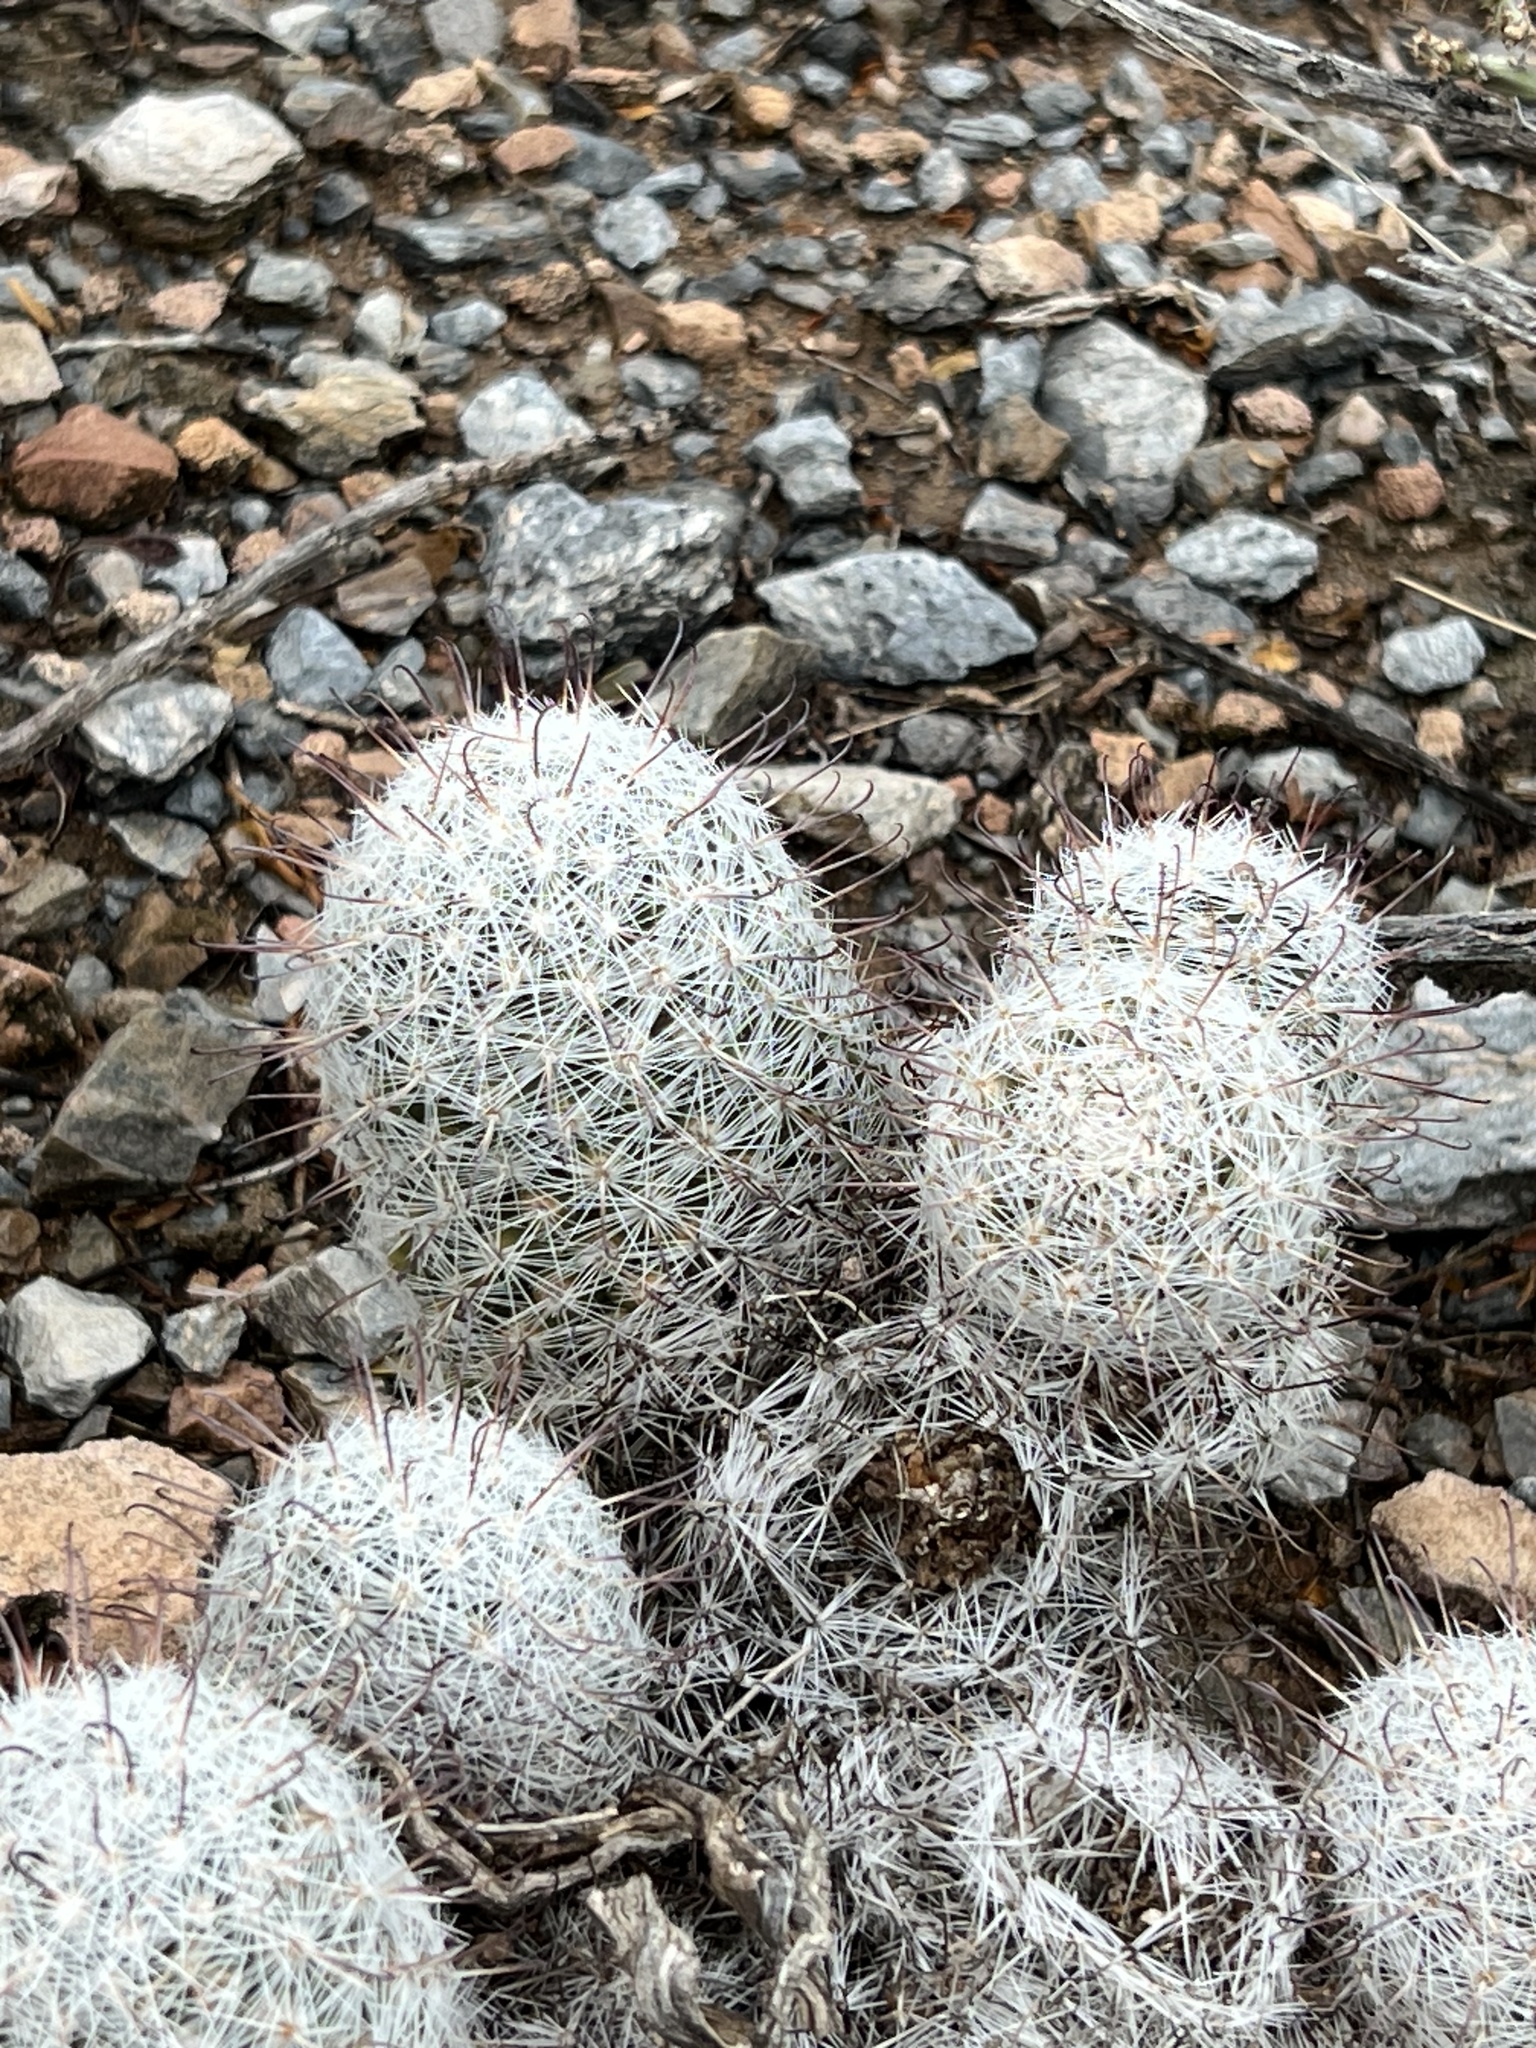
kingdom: Plantae
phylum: Tracheophyta
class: Magnoliopsida
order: Caryophyllales
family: Cactaceae
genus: Cochemiea
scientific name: Cochemiea grahamii
